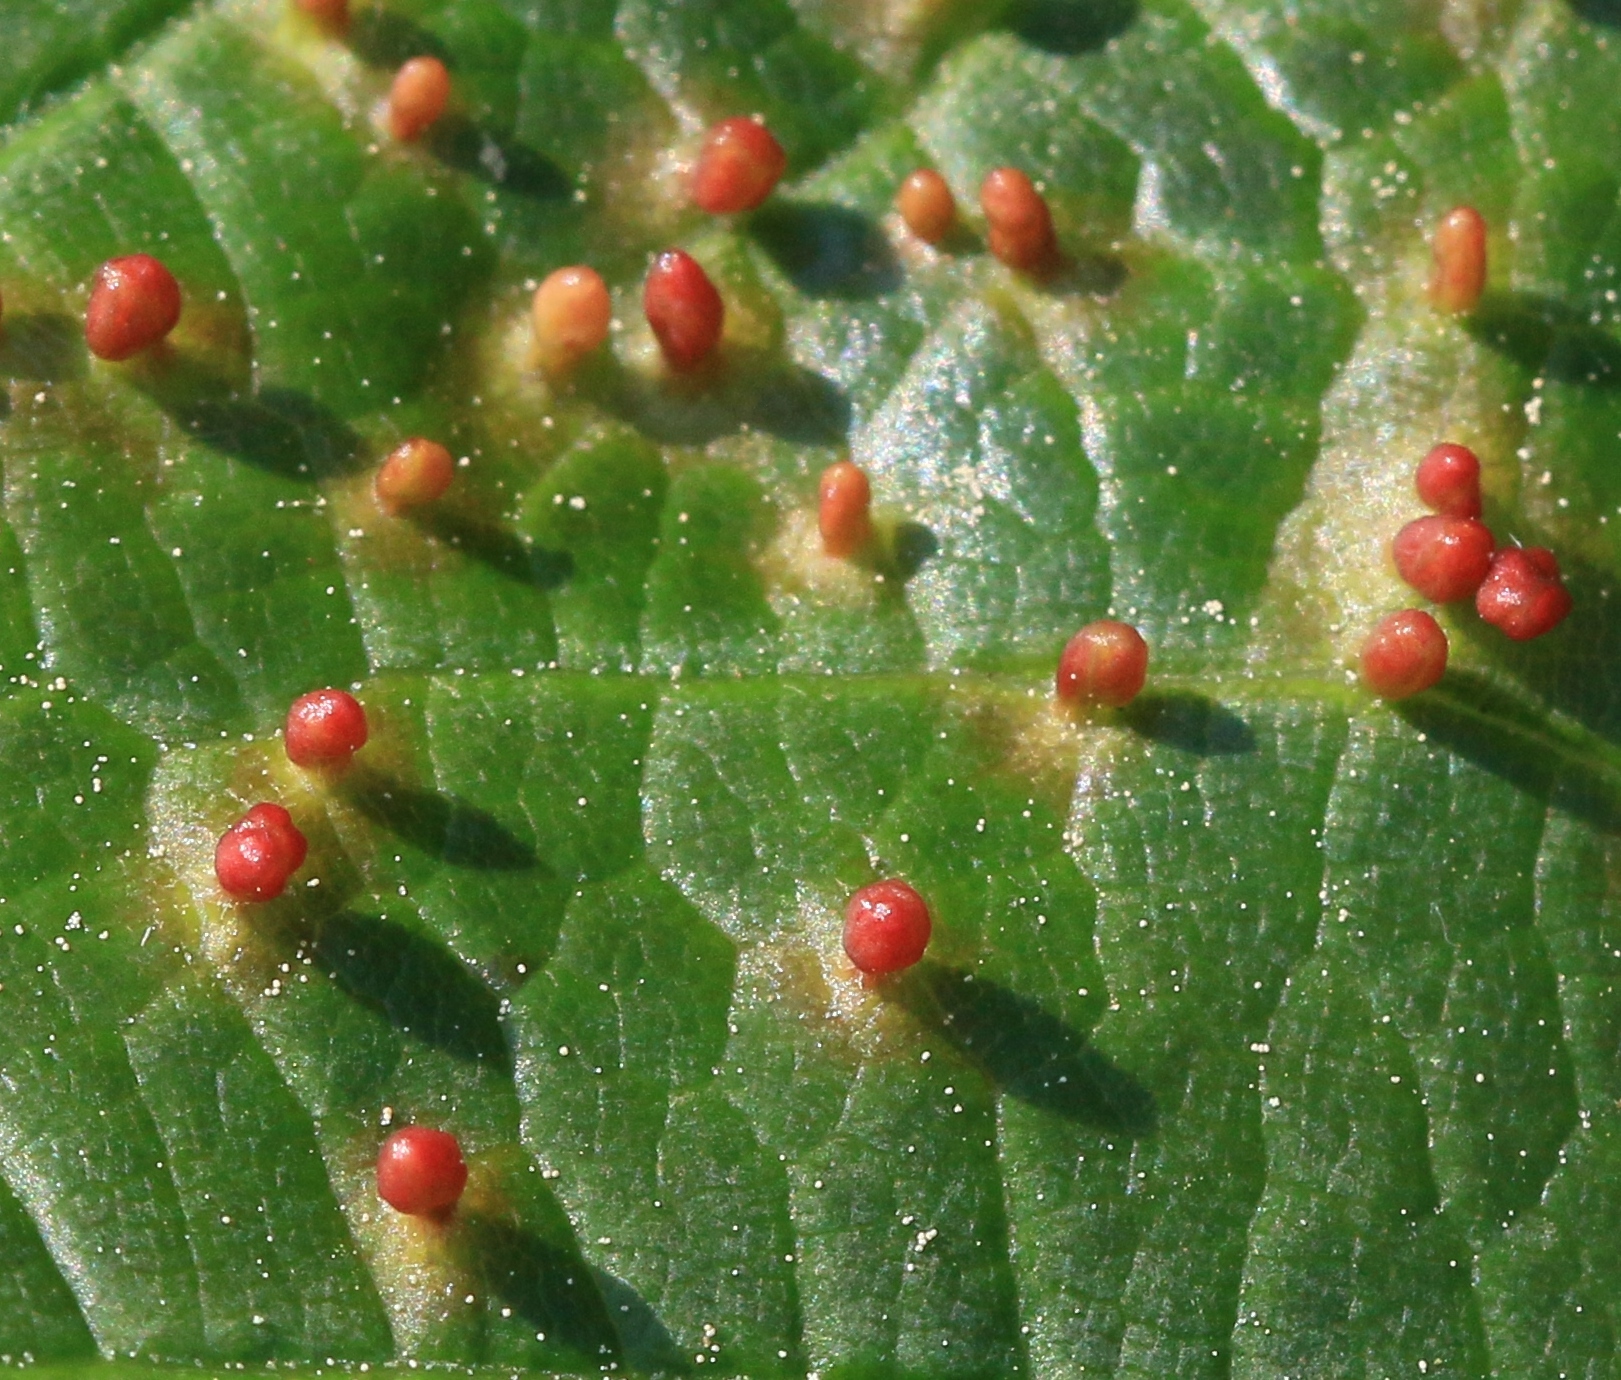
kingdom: Animalia
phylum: Arthropoda
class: Arachnida
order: Trombidiformes
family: Eriophyidae
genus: Aceria
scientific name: Aceria cephaloneus
